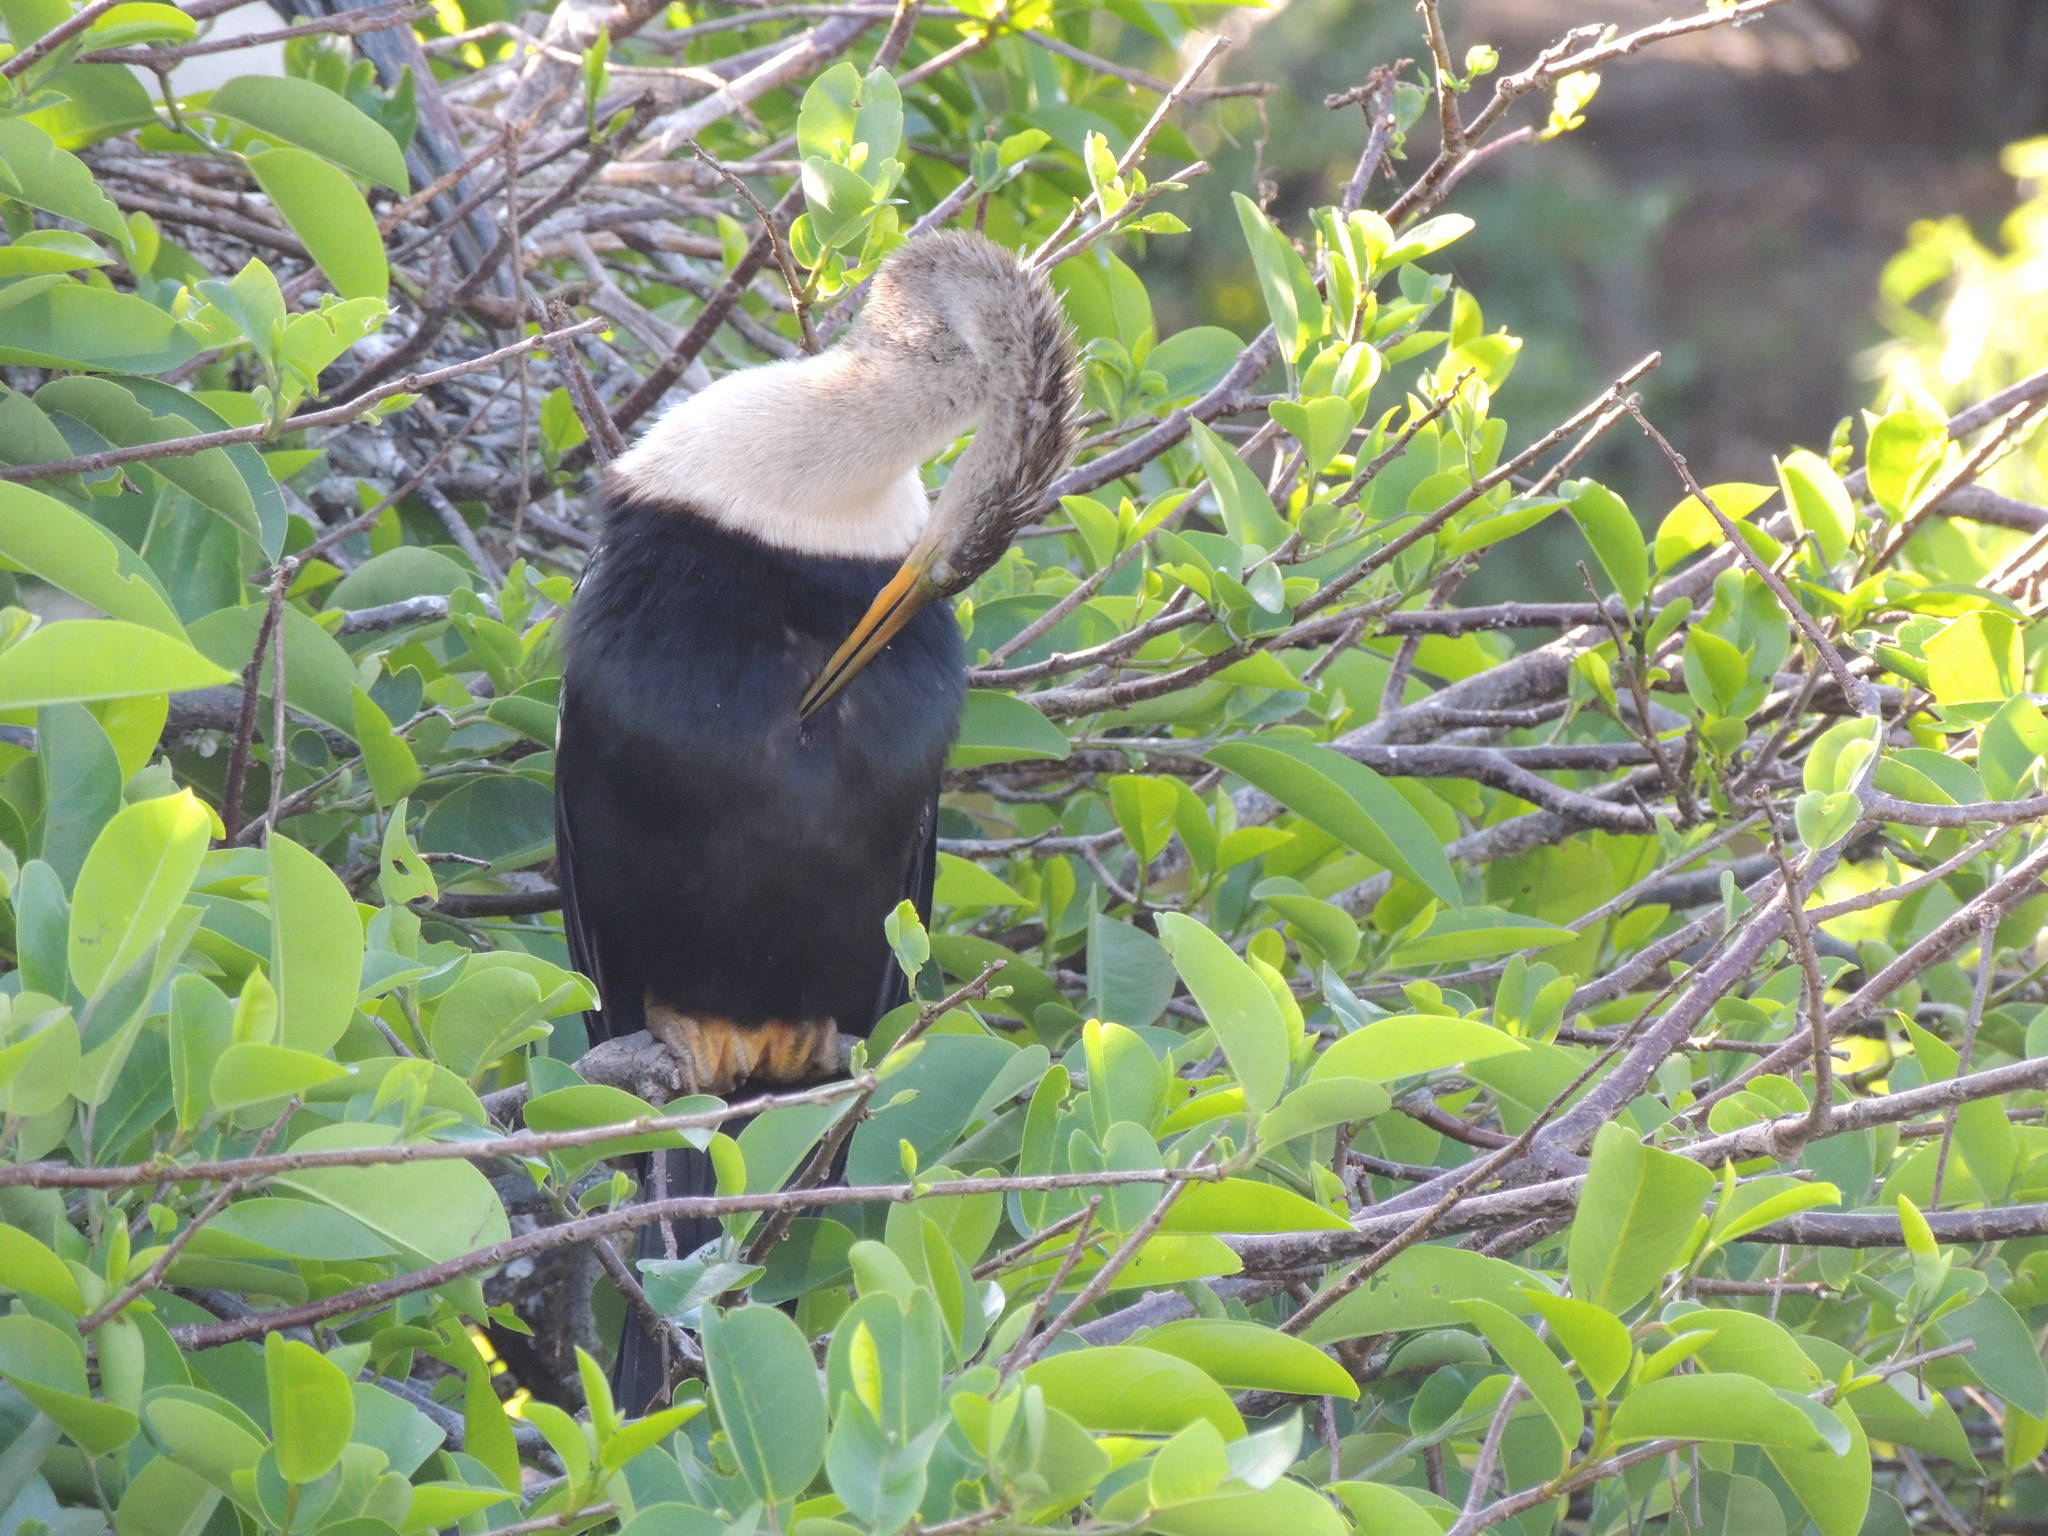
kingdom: Animalia
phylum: Chordata
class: Aves
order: Suliformes
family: Anhingidae
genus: Anhinga
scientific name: Anhinga anhinga
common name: Anhinga
